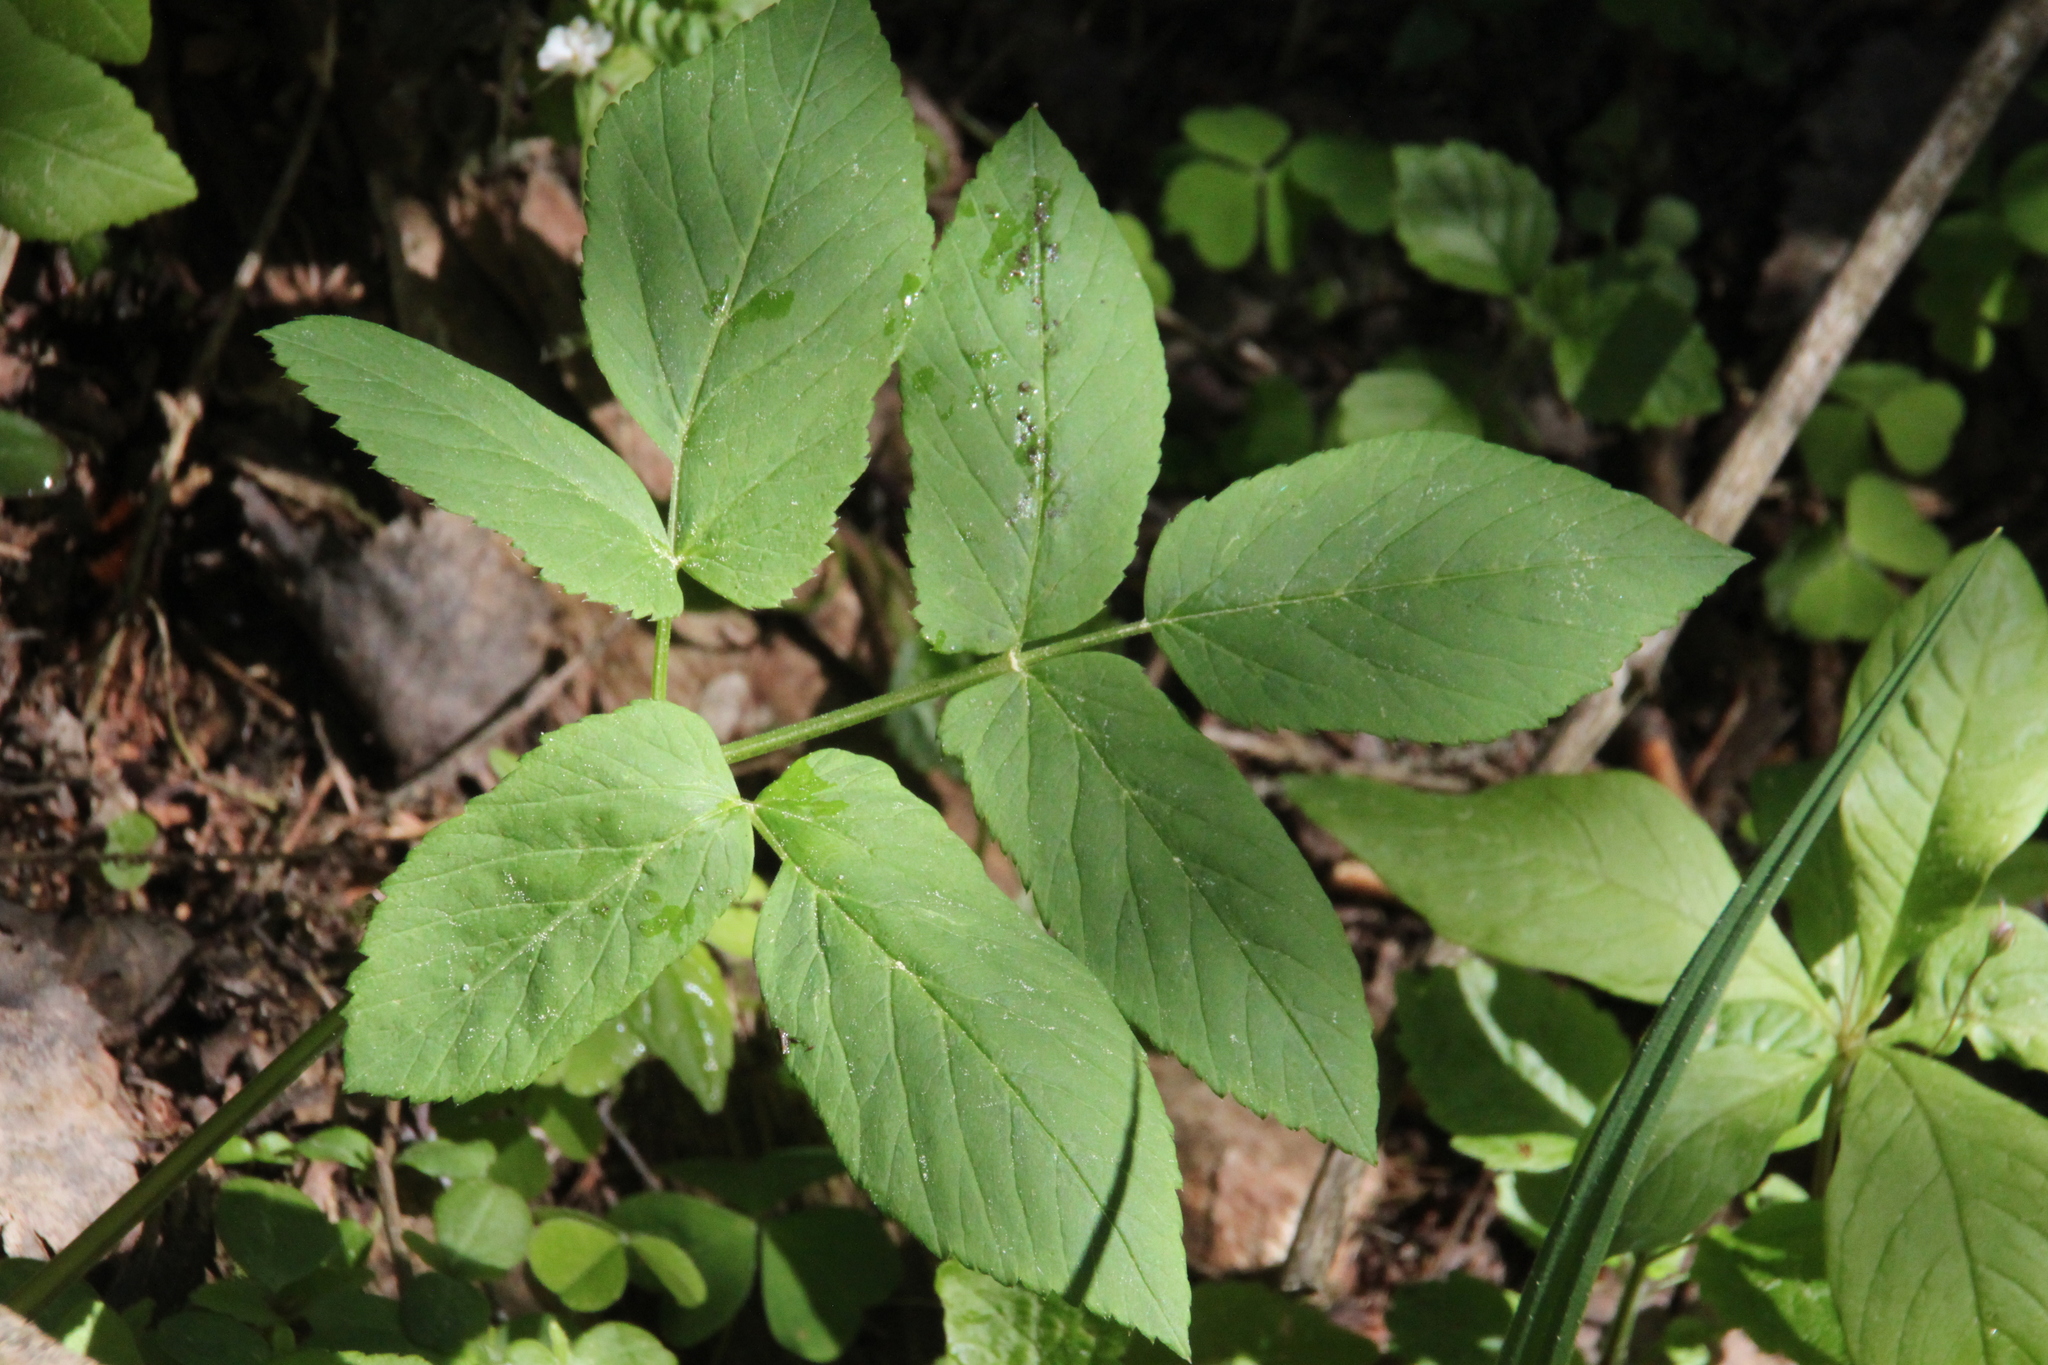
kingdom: Plantae
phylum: Tracheophyta
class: Magnoliopsida
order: Apiales
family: Apiaceae
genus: Aegopodium
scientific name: Aegopodium podagraria
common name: Ground-elder
